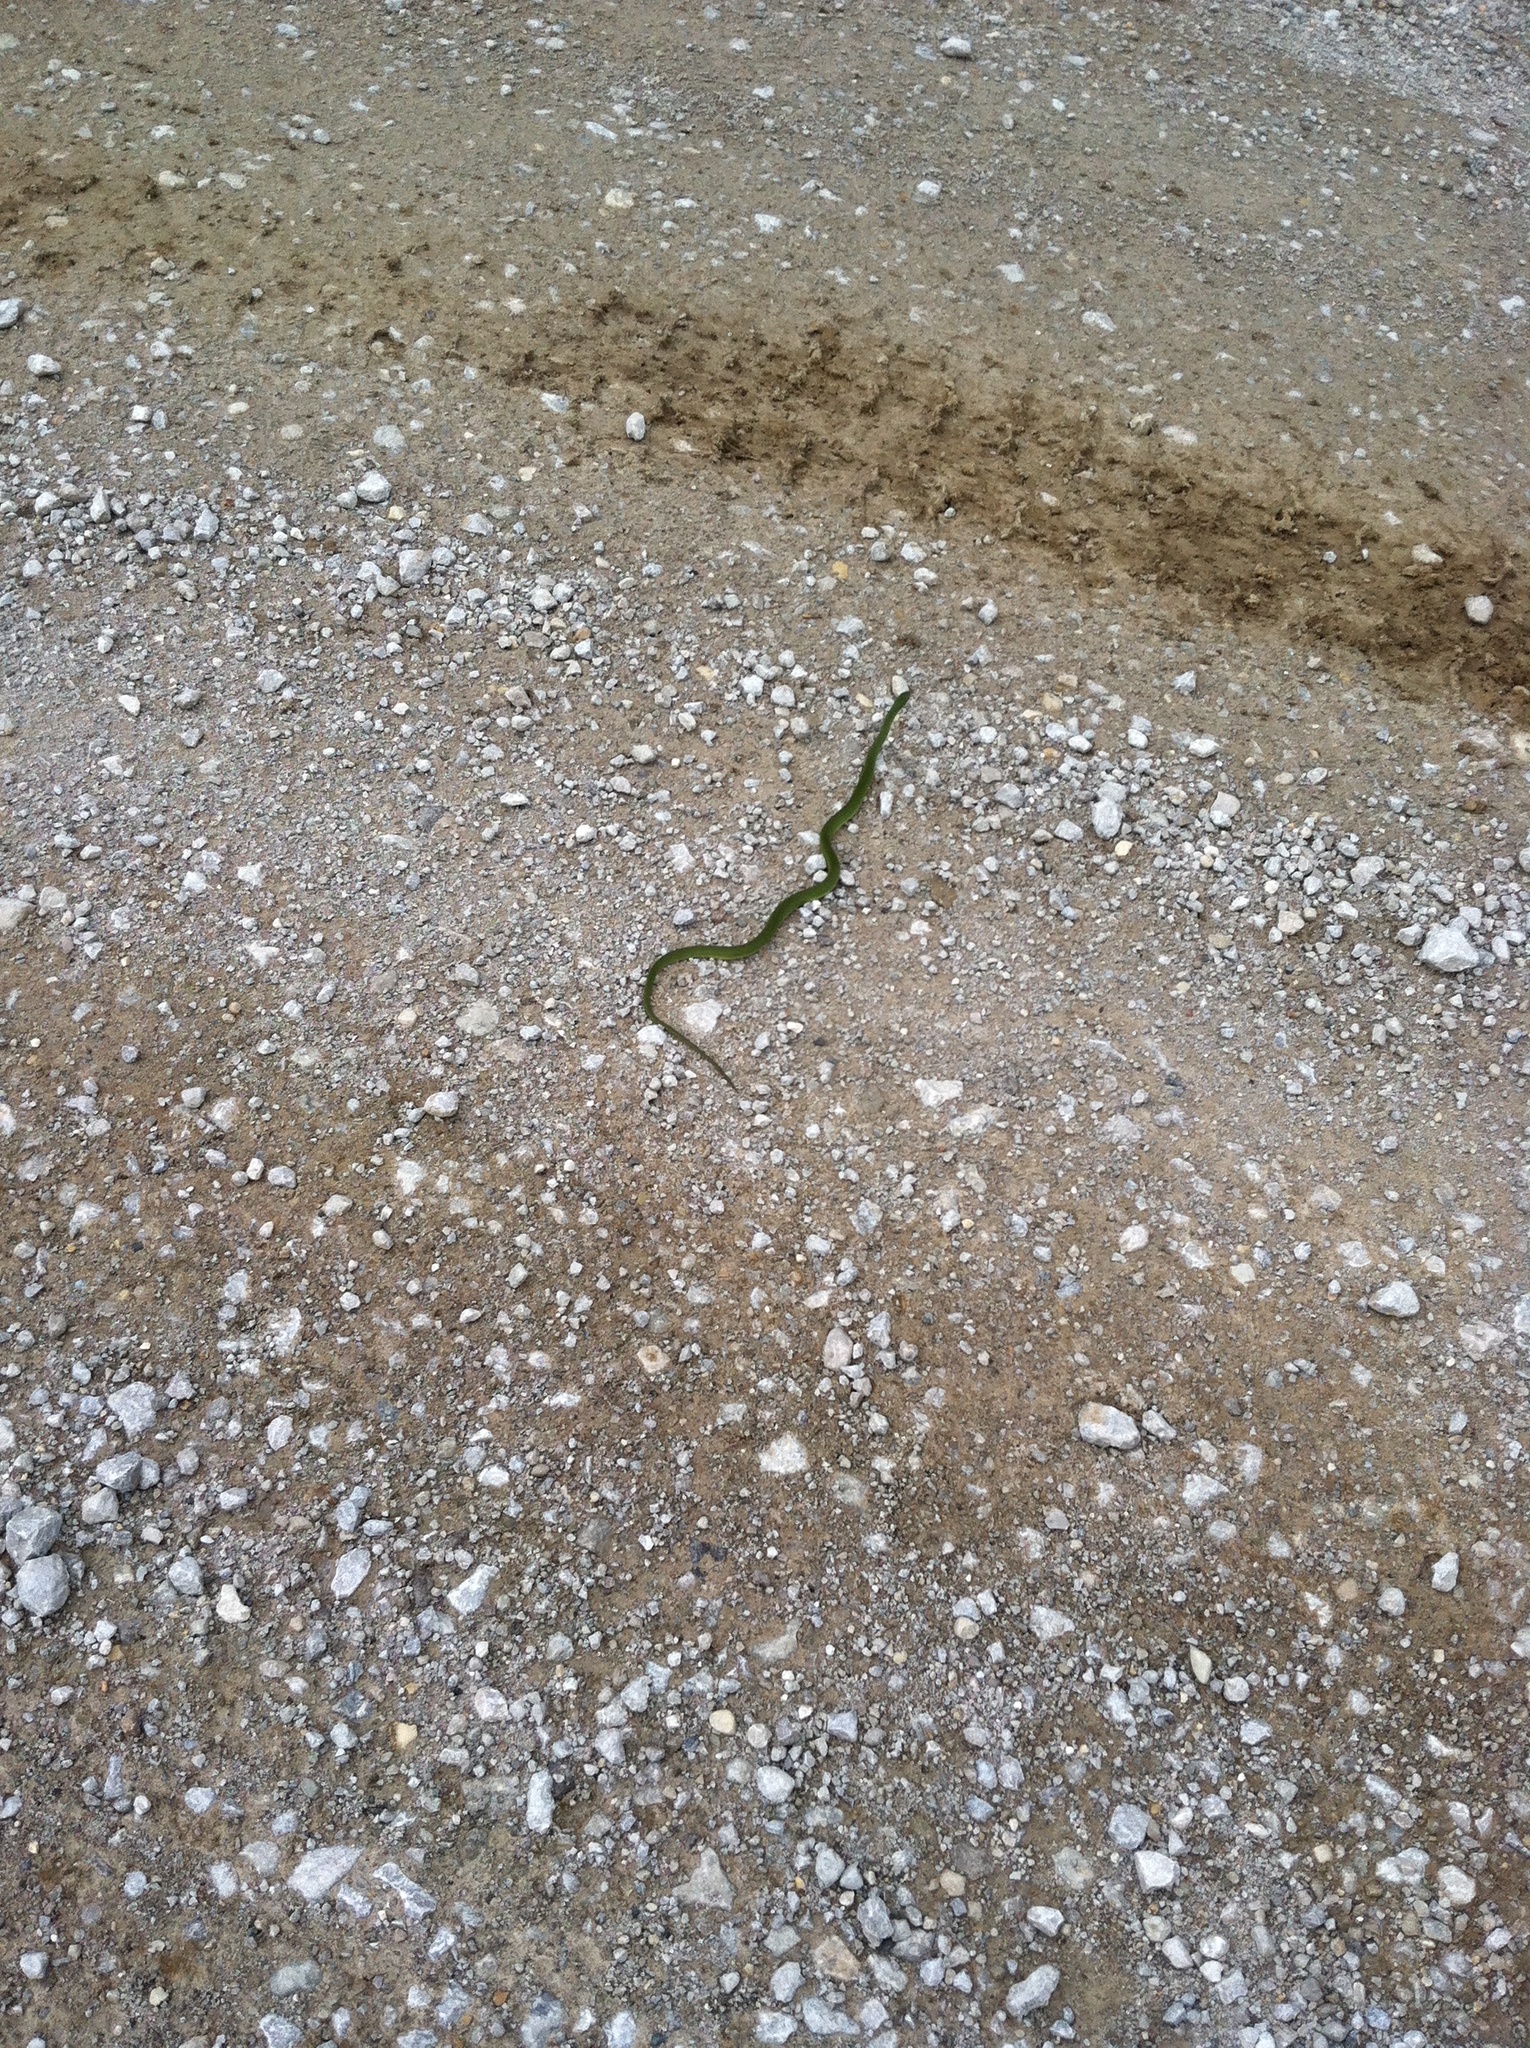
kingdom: Animalia
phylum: Chordata
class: Squamata
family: Colubridae
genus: Opheodrys
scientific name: Opheodrys vernalis
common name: Smooth green snake
